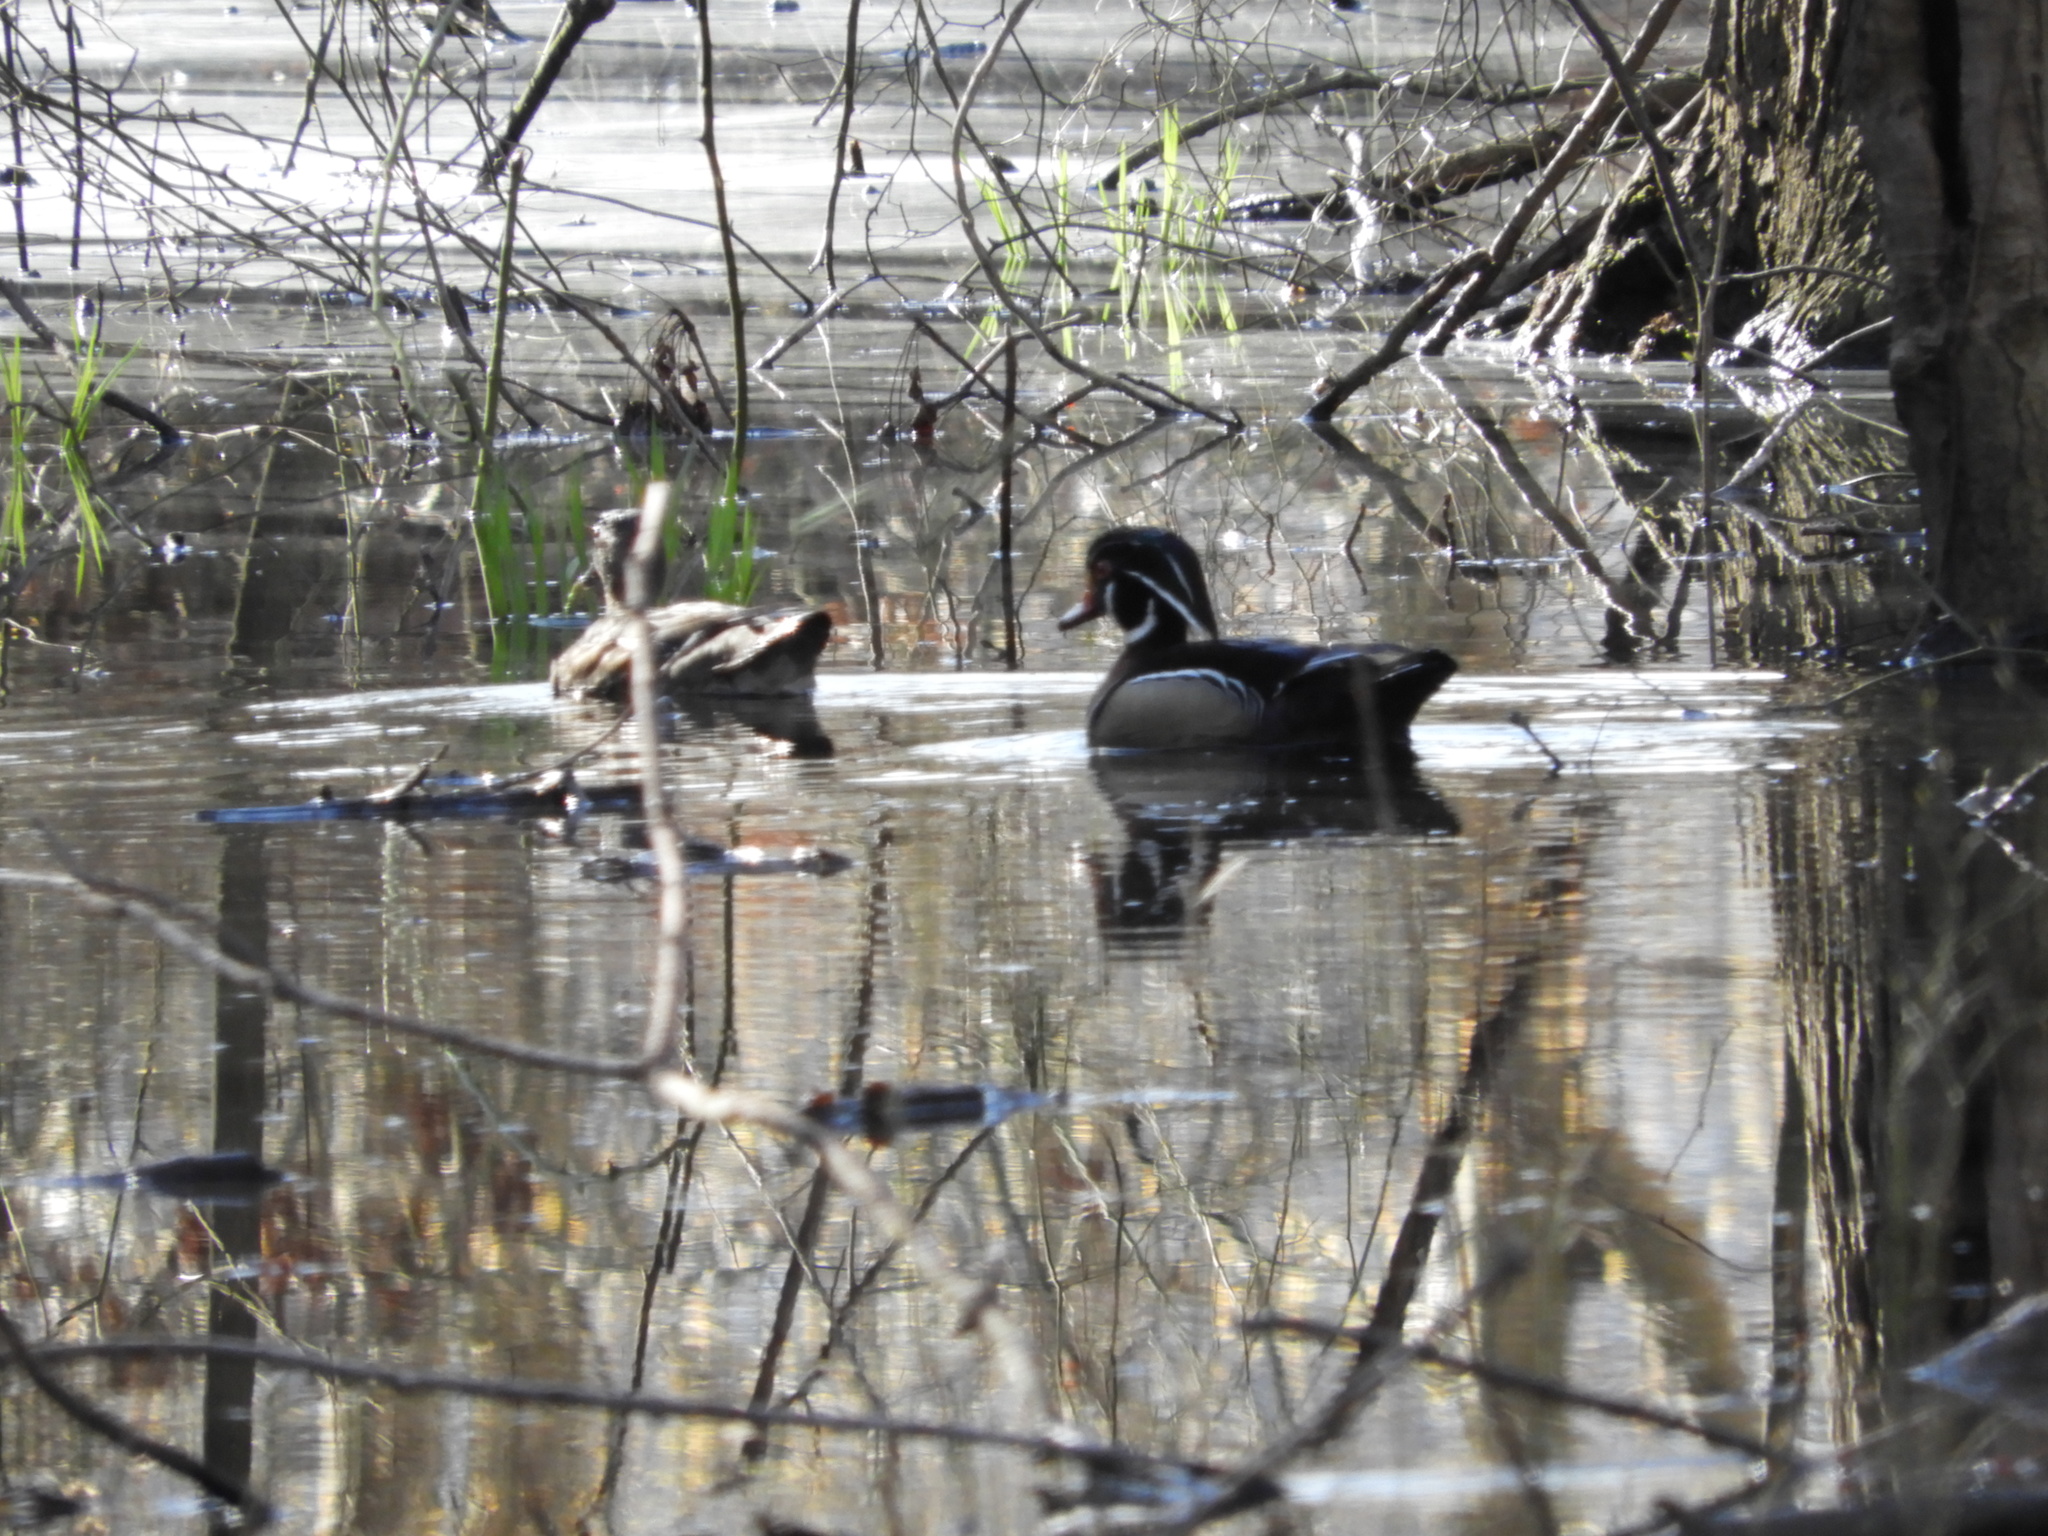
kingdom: Animalia
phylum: Chordata
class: Aves
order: Anseriformes
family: Anatidae
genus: Aix
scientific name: Aix sponsa
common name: Wood duck
